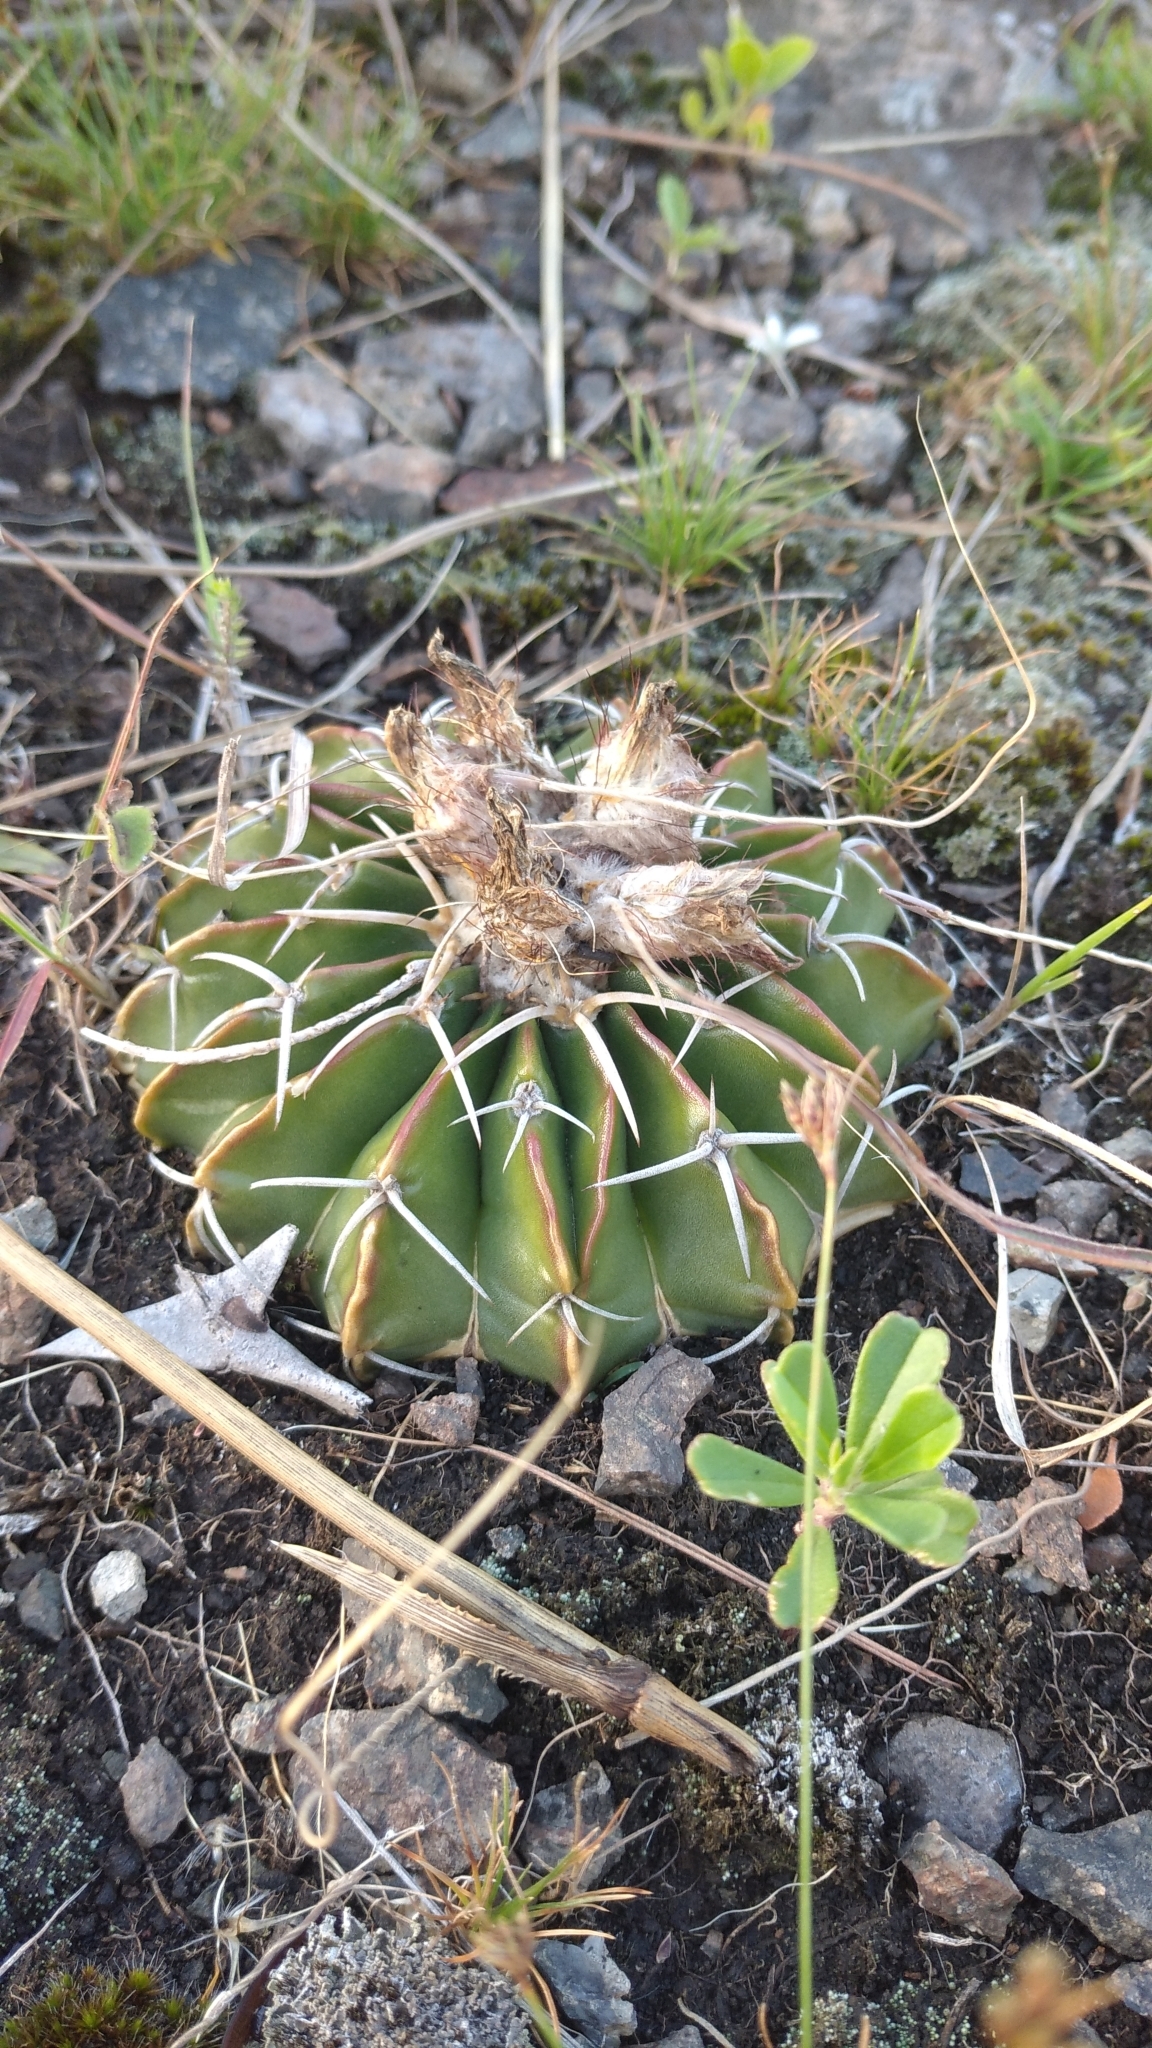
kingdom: Plantae
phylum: Tracheophyta
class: Magnoliopsida
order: Caryophyllales
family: Cactaceae
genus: Parodia
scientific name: Parodia erinacea
